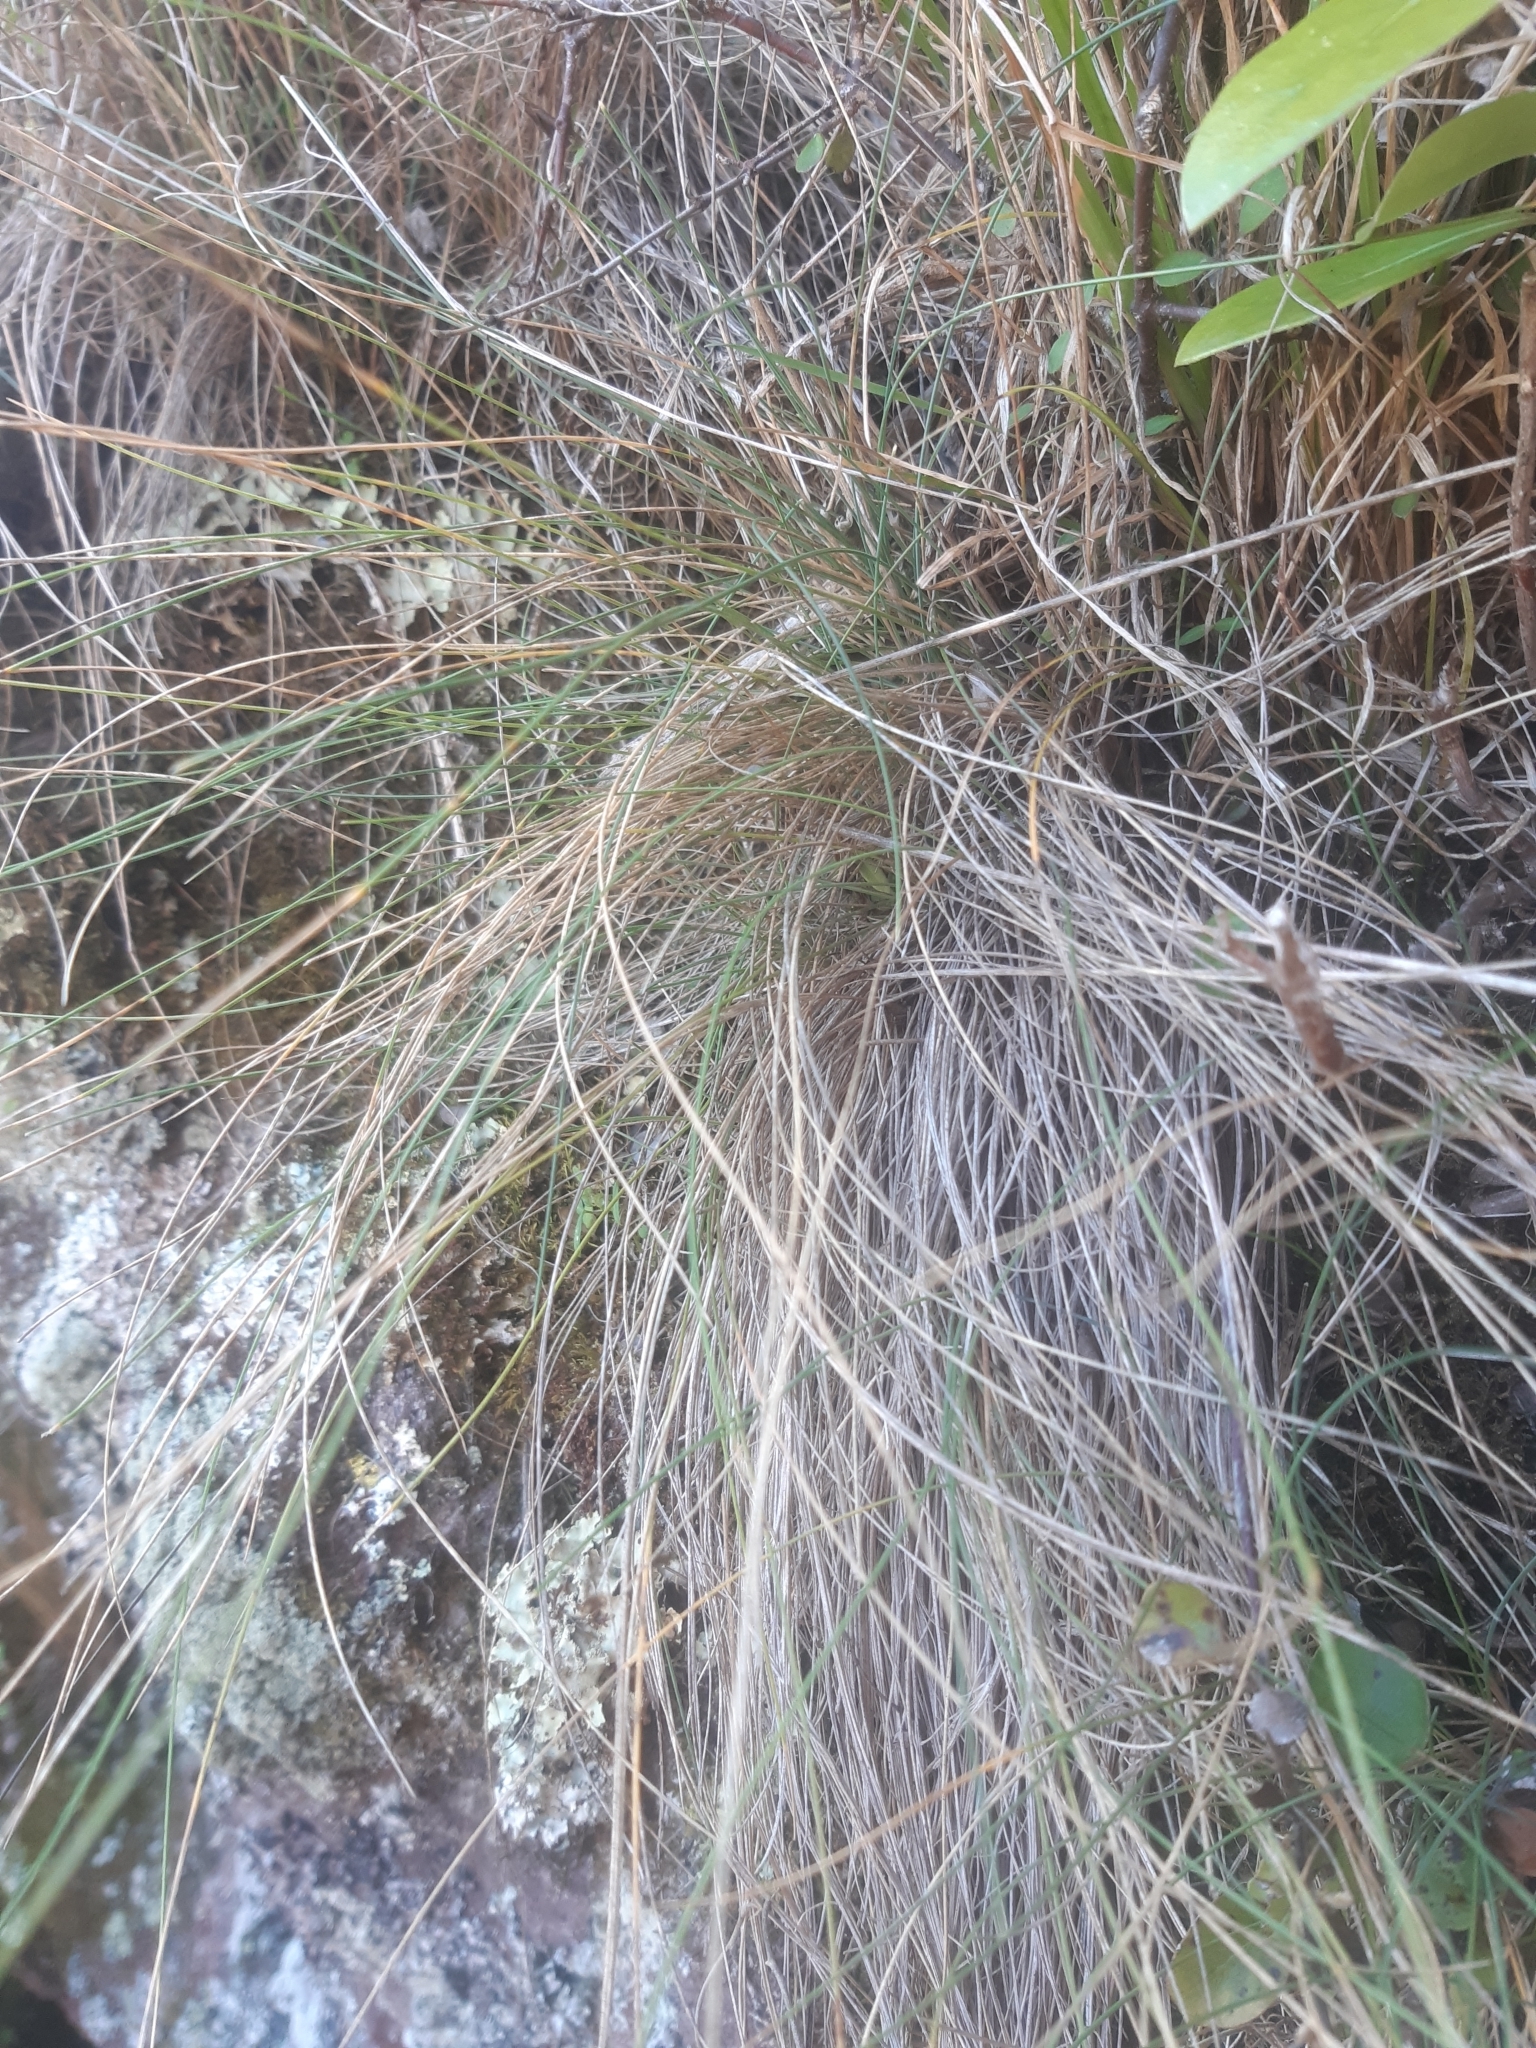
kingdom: Plantae
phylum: Tracheophyta
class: Liliopsida
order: Poales
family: Poaceae
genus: Festuca
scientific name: Festuca actae
